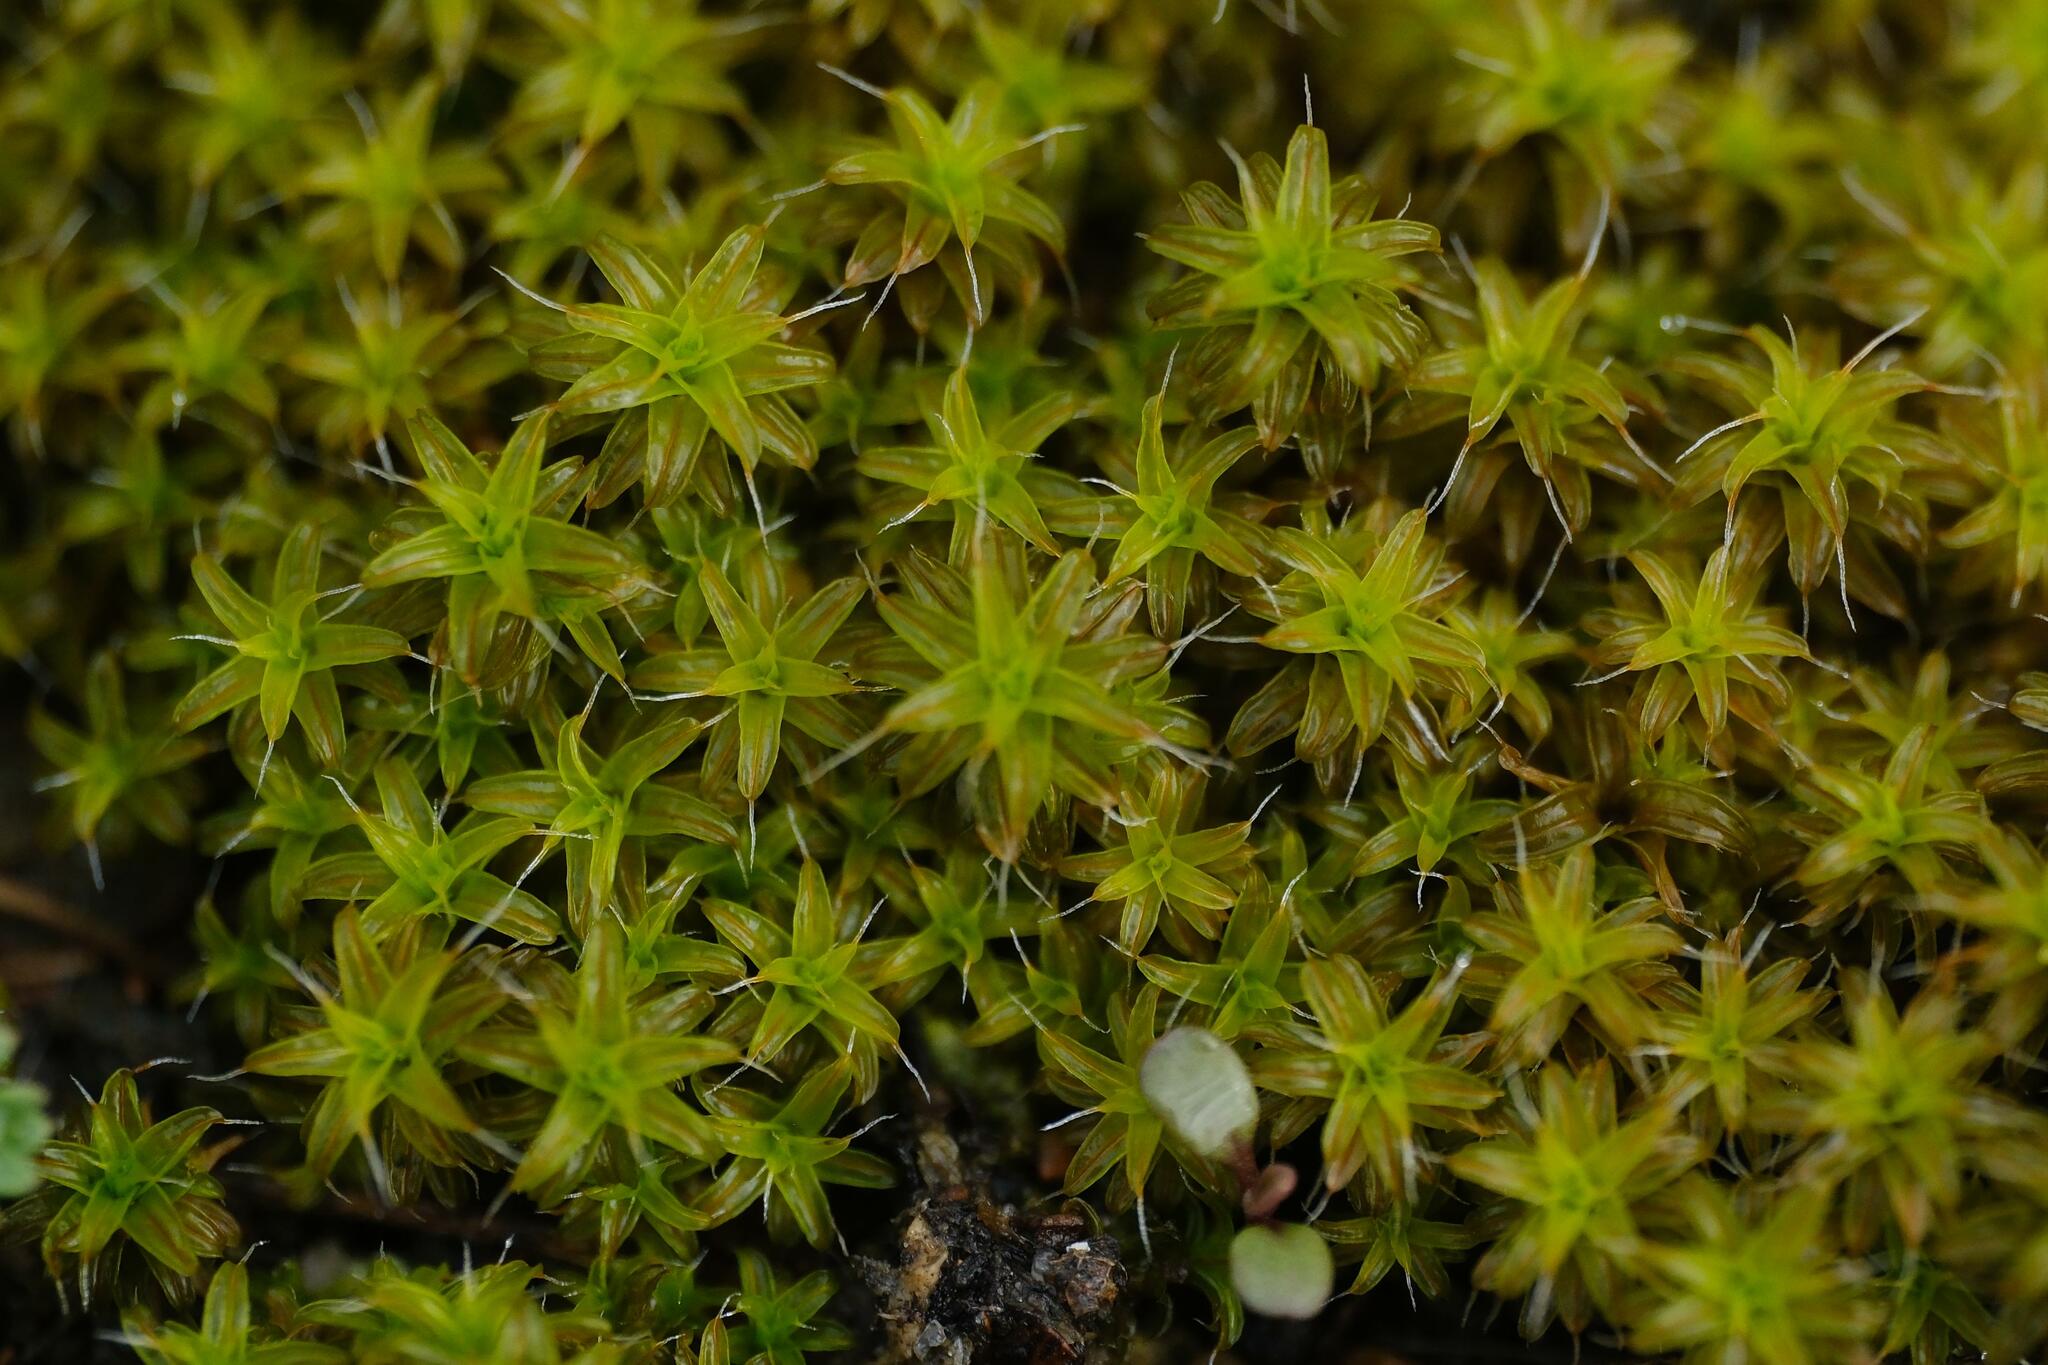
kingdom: Plantae
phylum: Bryophyta
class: Bryopsida
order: Pottiales
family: Pottiaceae
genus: Syntrichia
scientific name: Syntrichia ruralis
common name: Sidewalk screw moss
